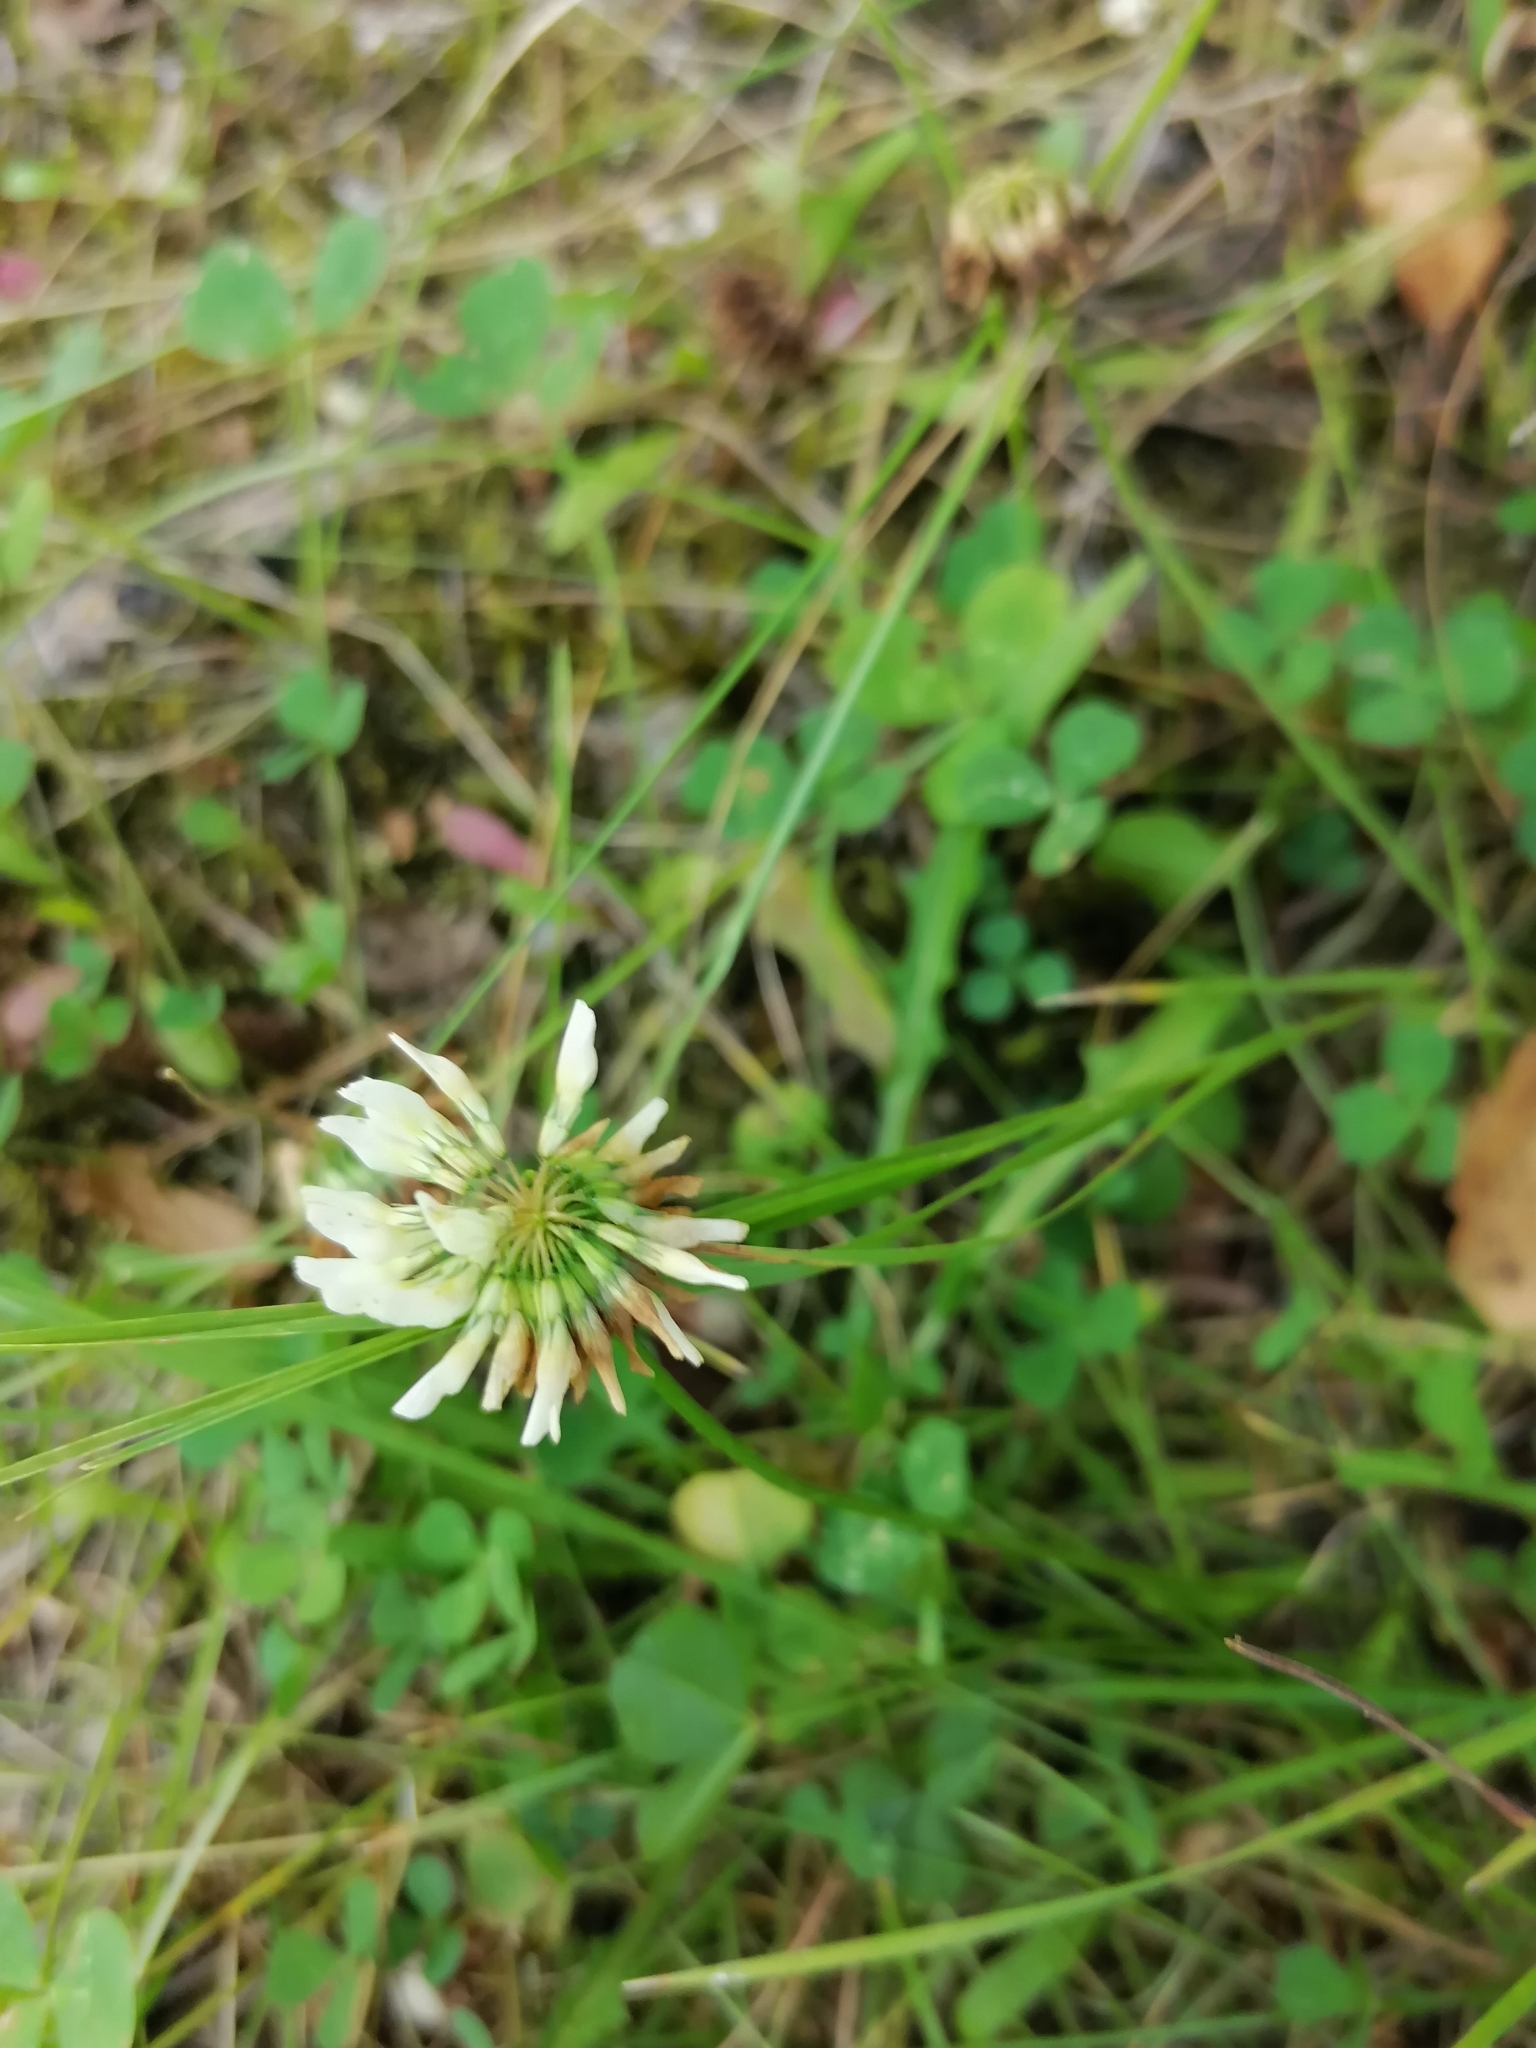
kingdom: Plantae
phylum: Tracheophyta
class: Magnoliopsida
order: Fabales
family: Fabaceae
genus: Trifolium
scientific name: Trifolium repens
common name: White clover
